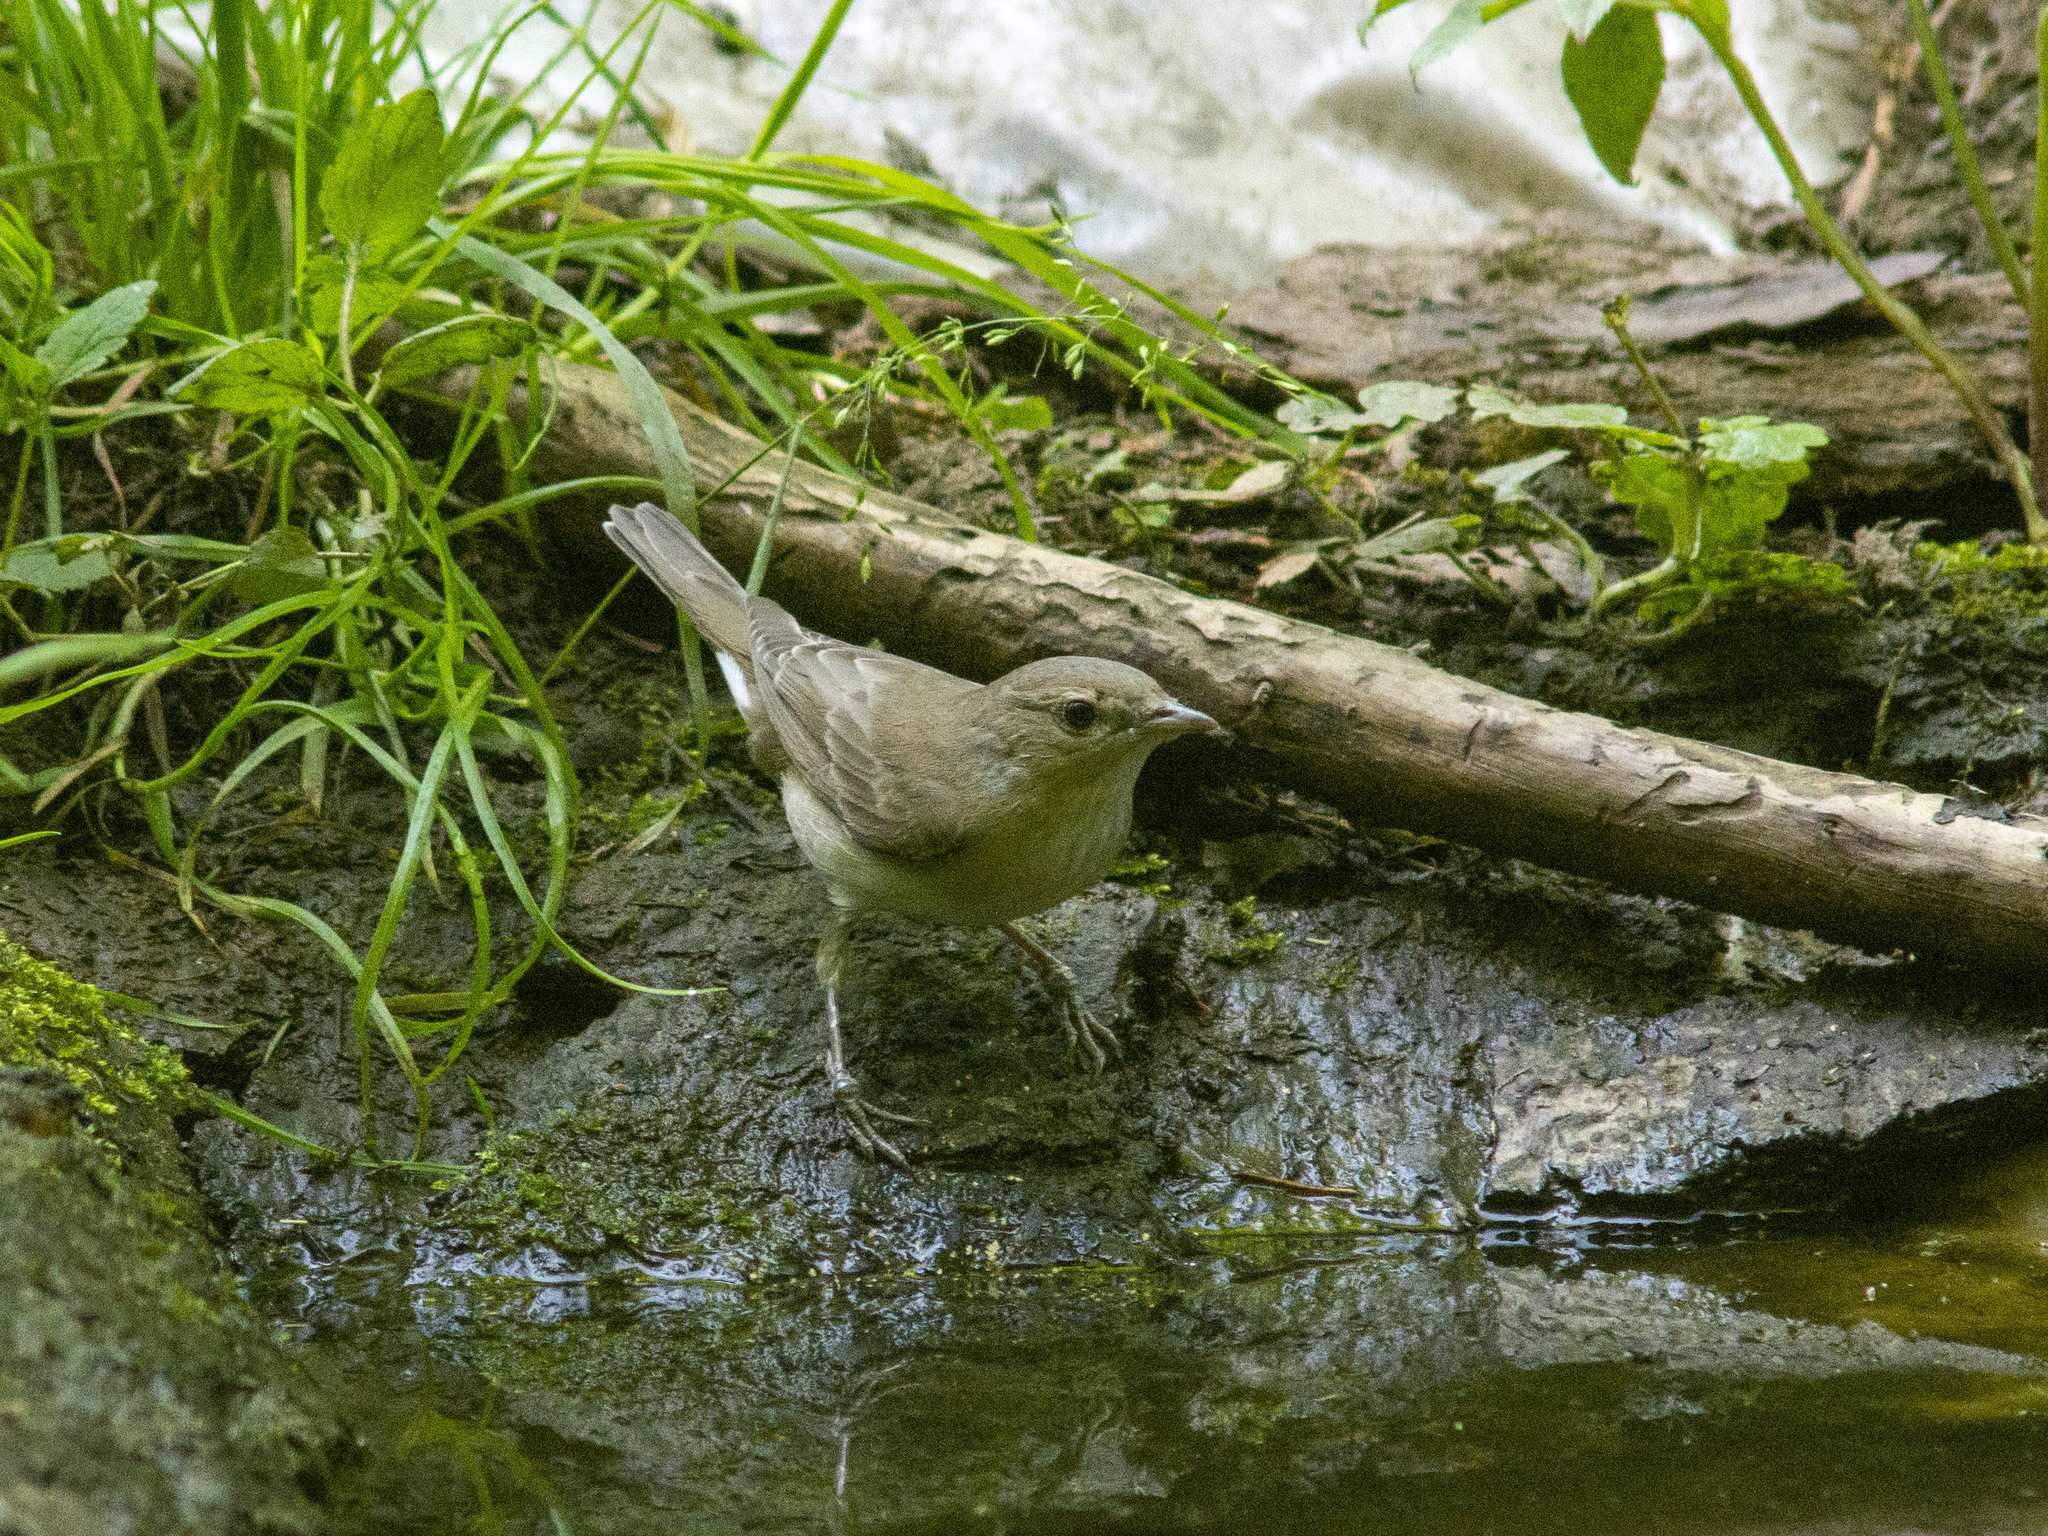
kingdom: Animalia
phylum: Chordata
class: Aves
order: Passeriformes
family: Sylviidae
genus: Sylvia
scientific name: Sylvia borin
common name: Garden warbler
